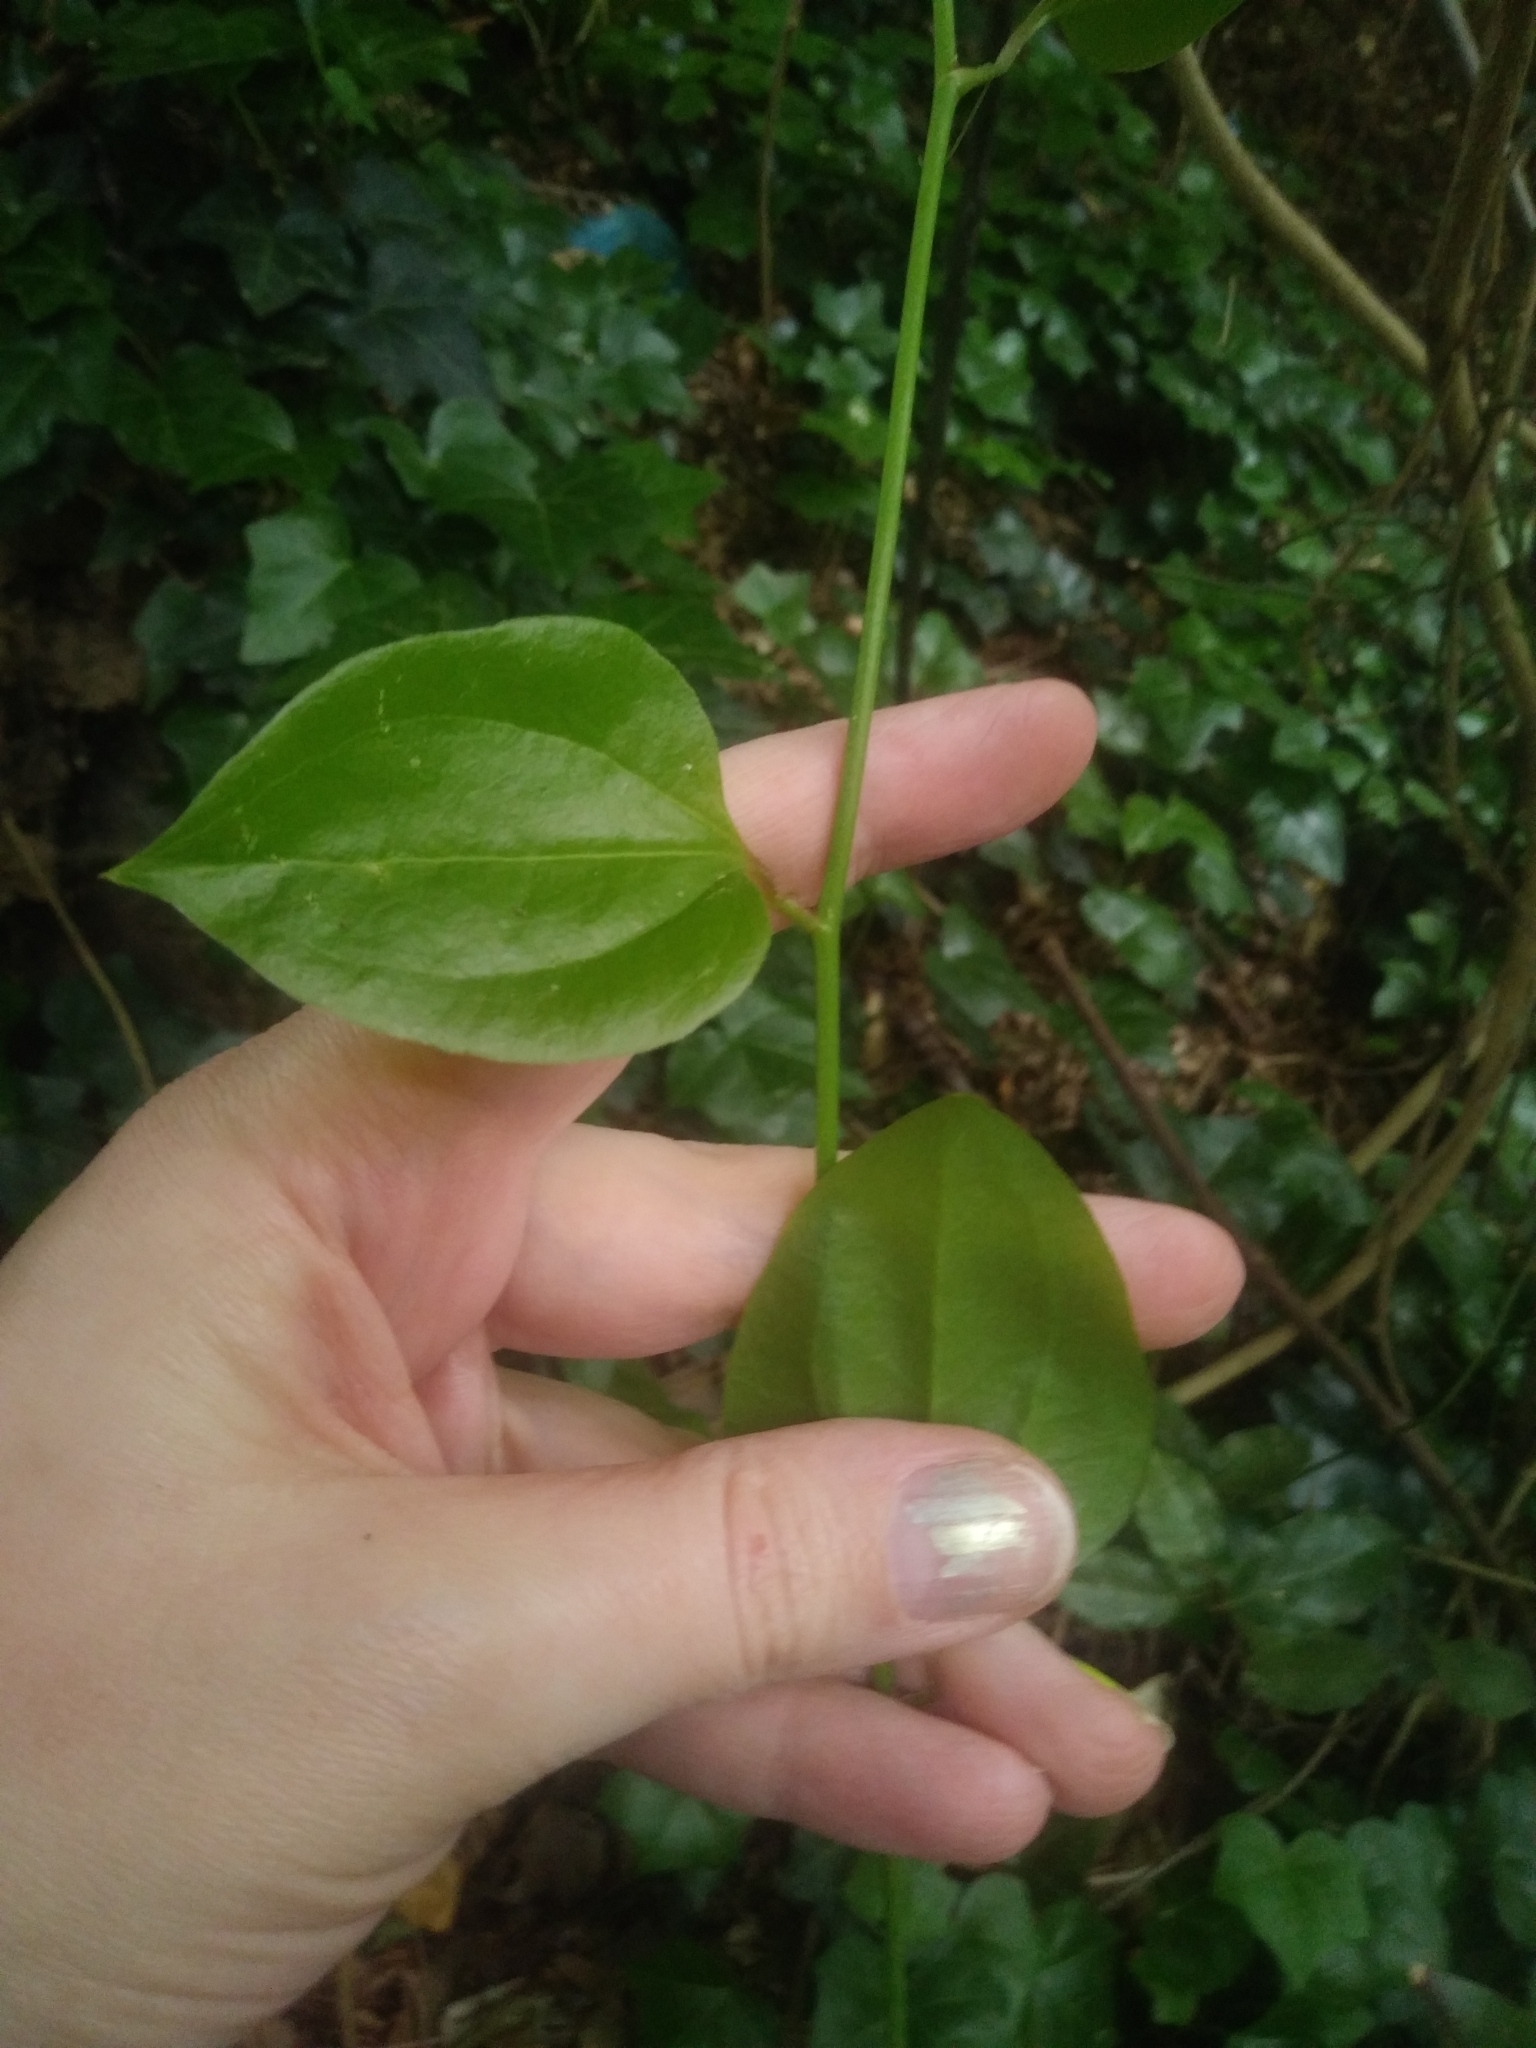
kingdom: Plantae
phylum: Tracheophyta
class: Liliopsida
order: Liliales
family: Smilacaceae
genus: Smilax
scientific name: Smilax rotundifolia
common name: Bullbriar
